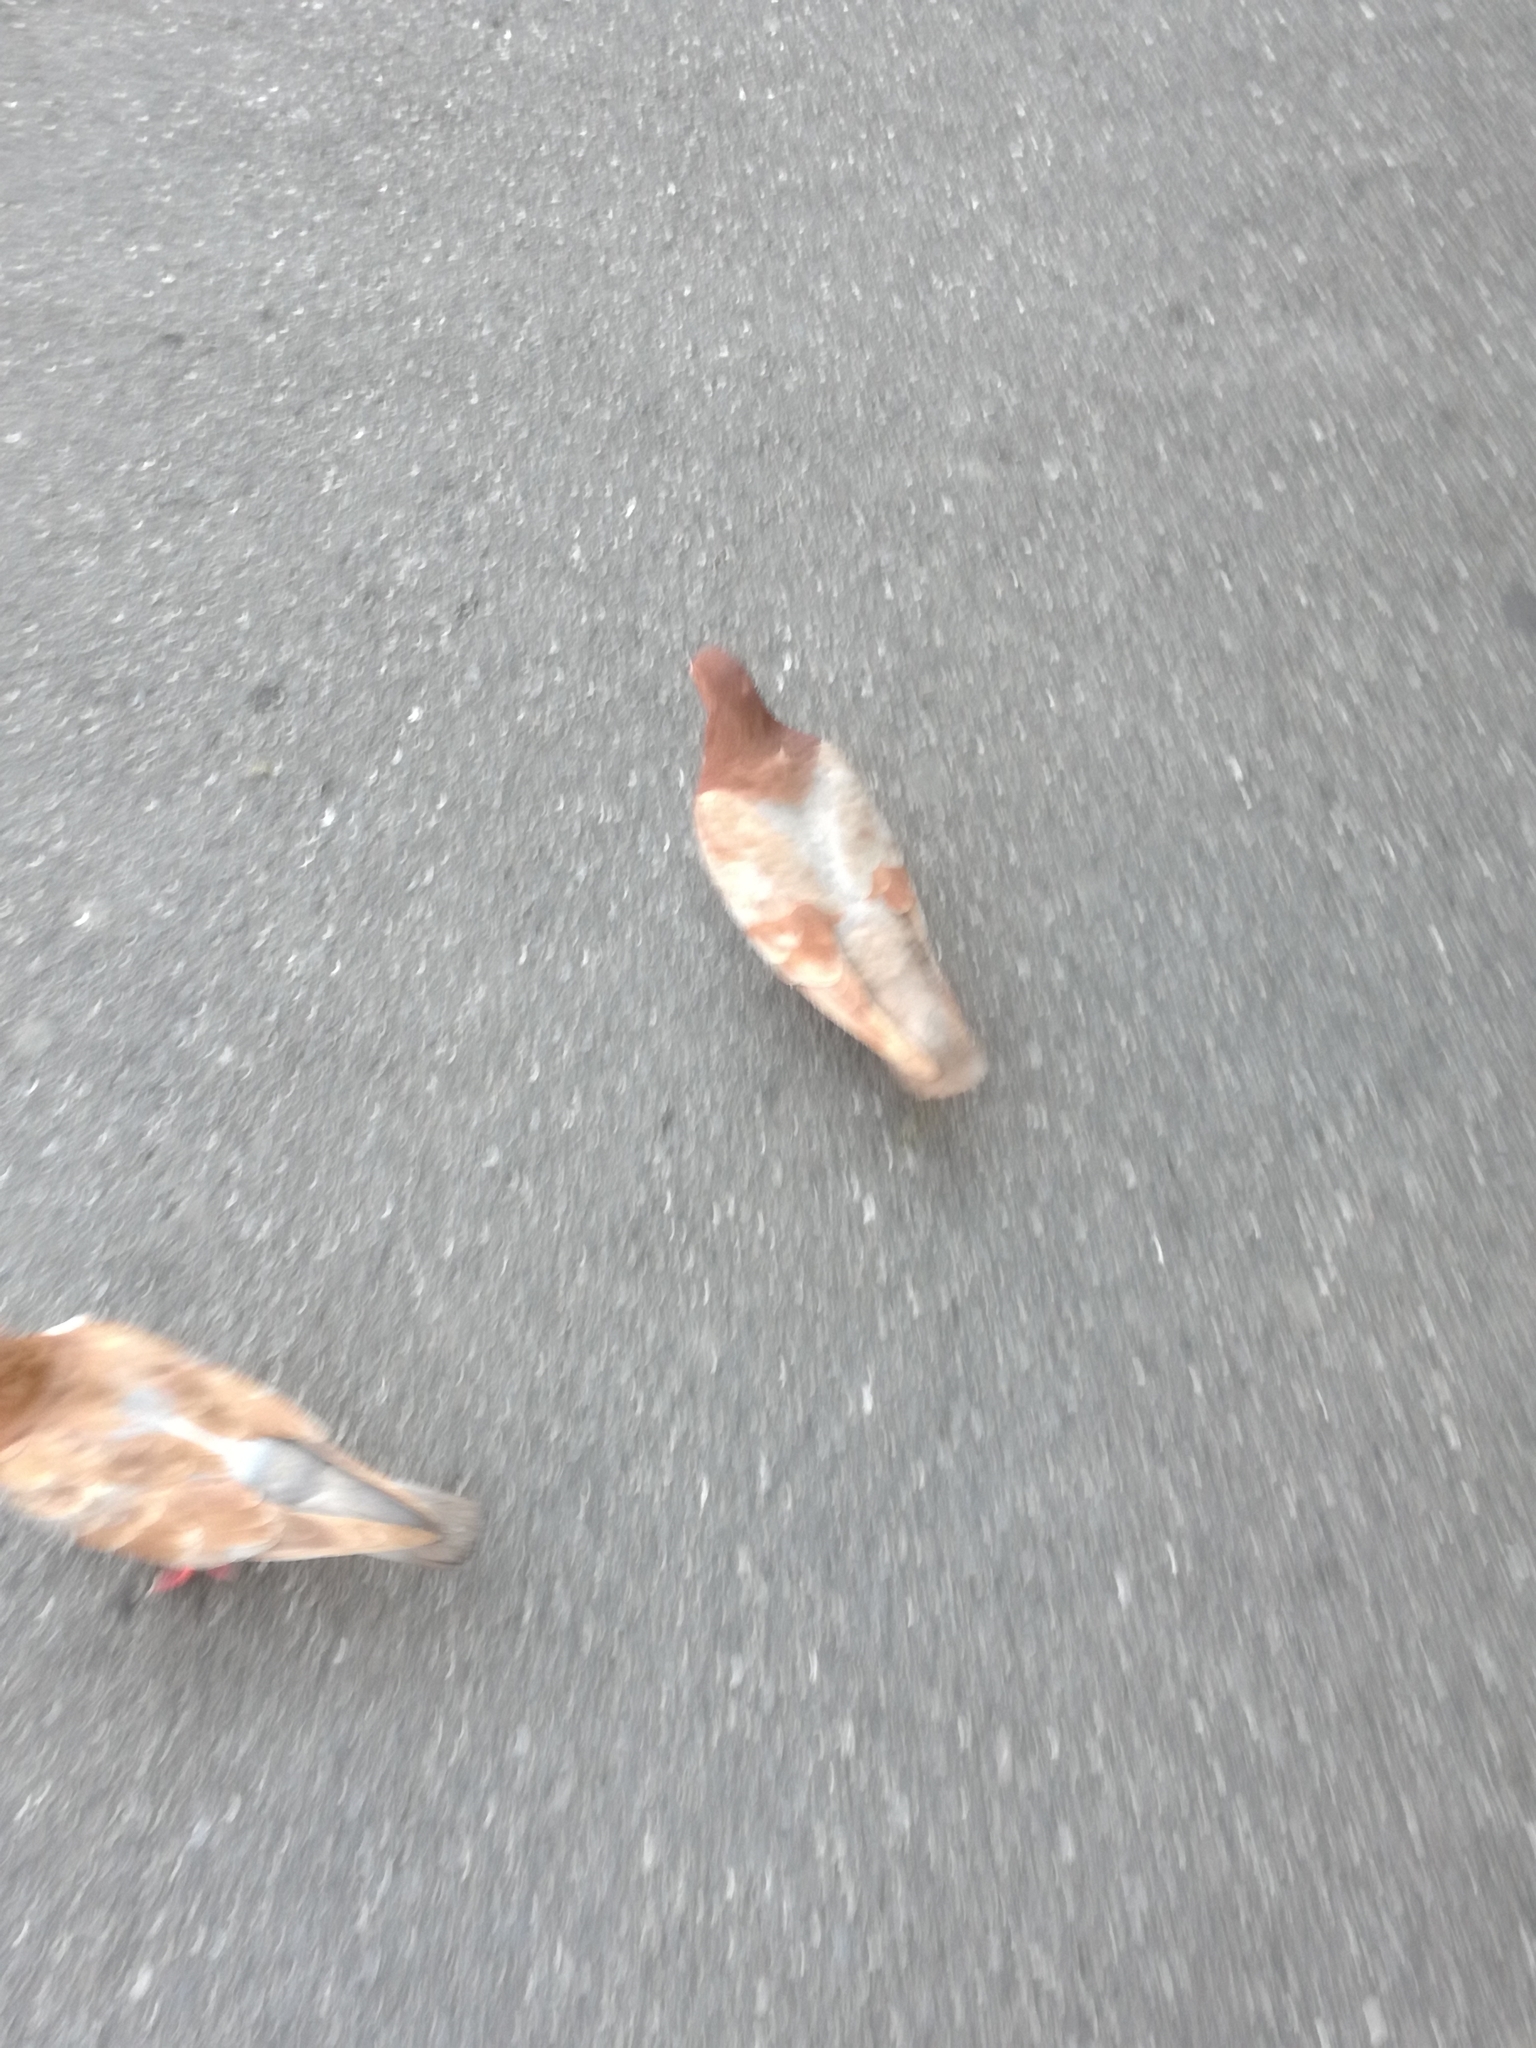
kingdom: Animalia
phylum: Chordata
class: Aves
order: Columbiformes
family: Columbidae
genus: Columba
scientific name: Columba livia
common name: Rock pigeon
